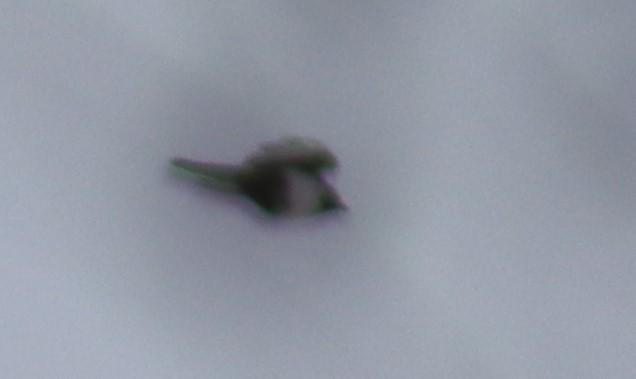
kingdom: Animalia
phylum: Chordata
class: Aves
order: Passeriformes
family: Corvidae
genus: Pica
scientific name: Pica hudsonia
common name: Black-billed magpie
